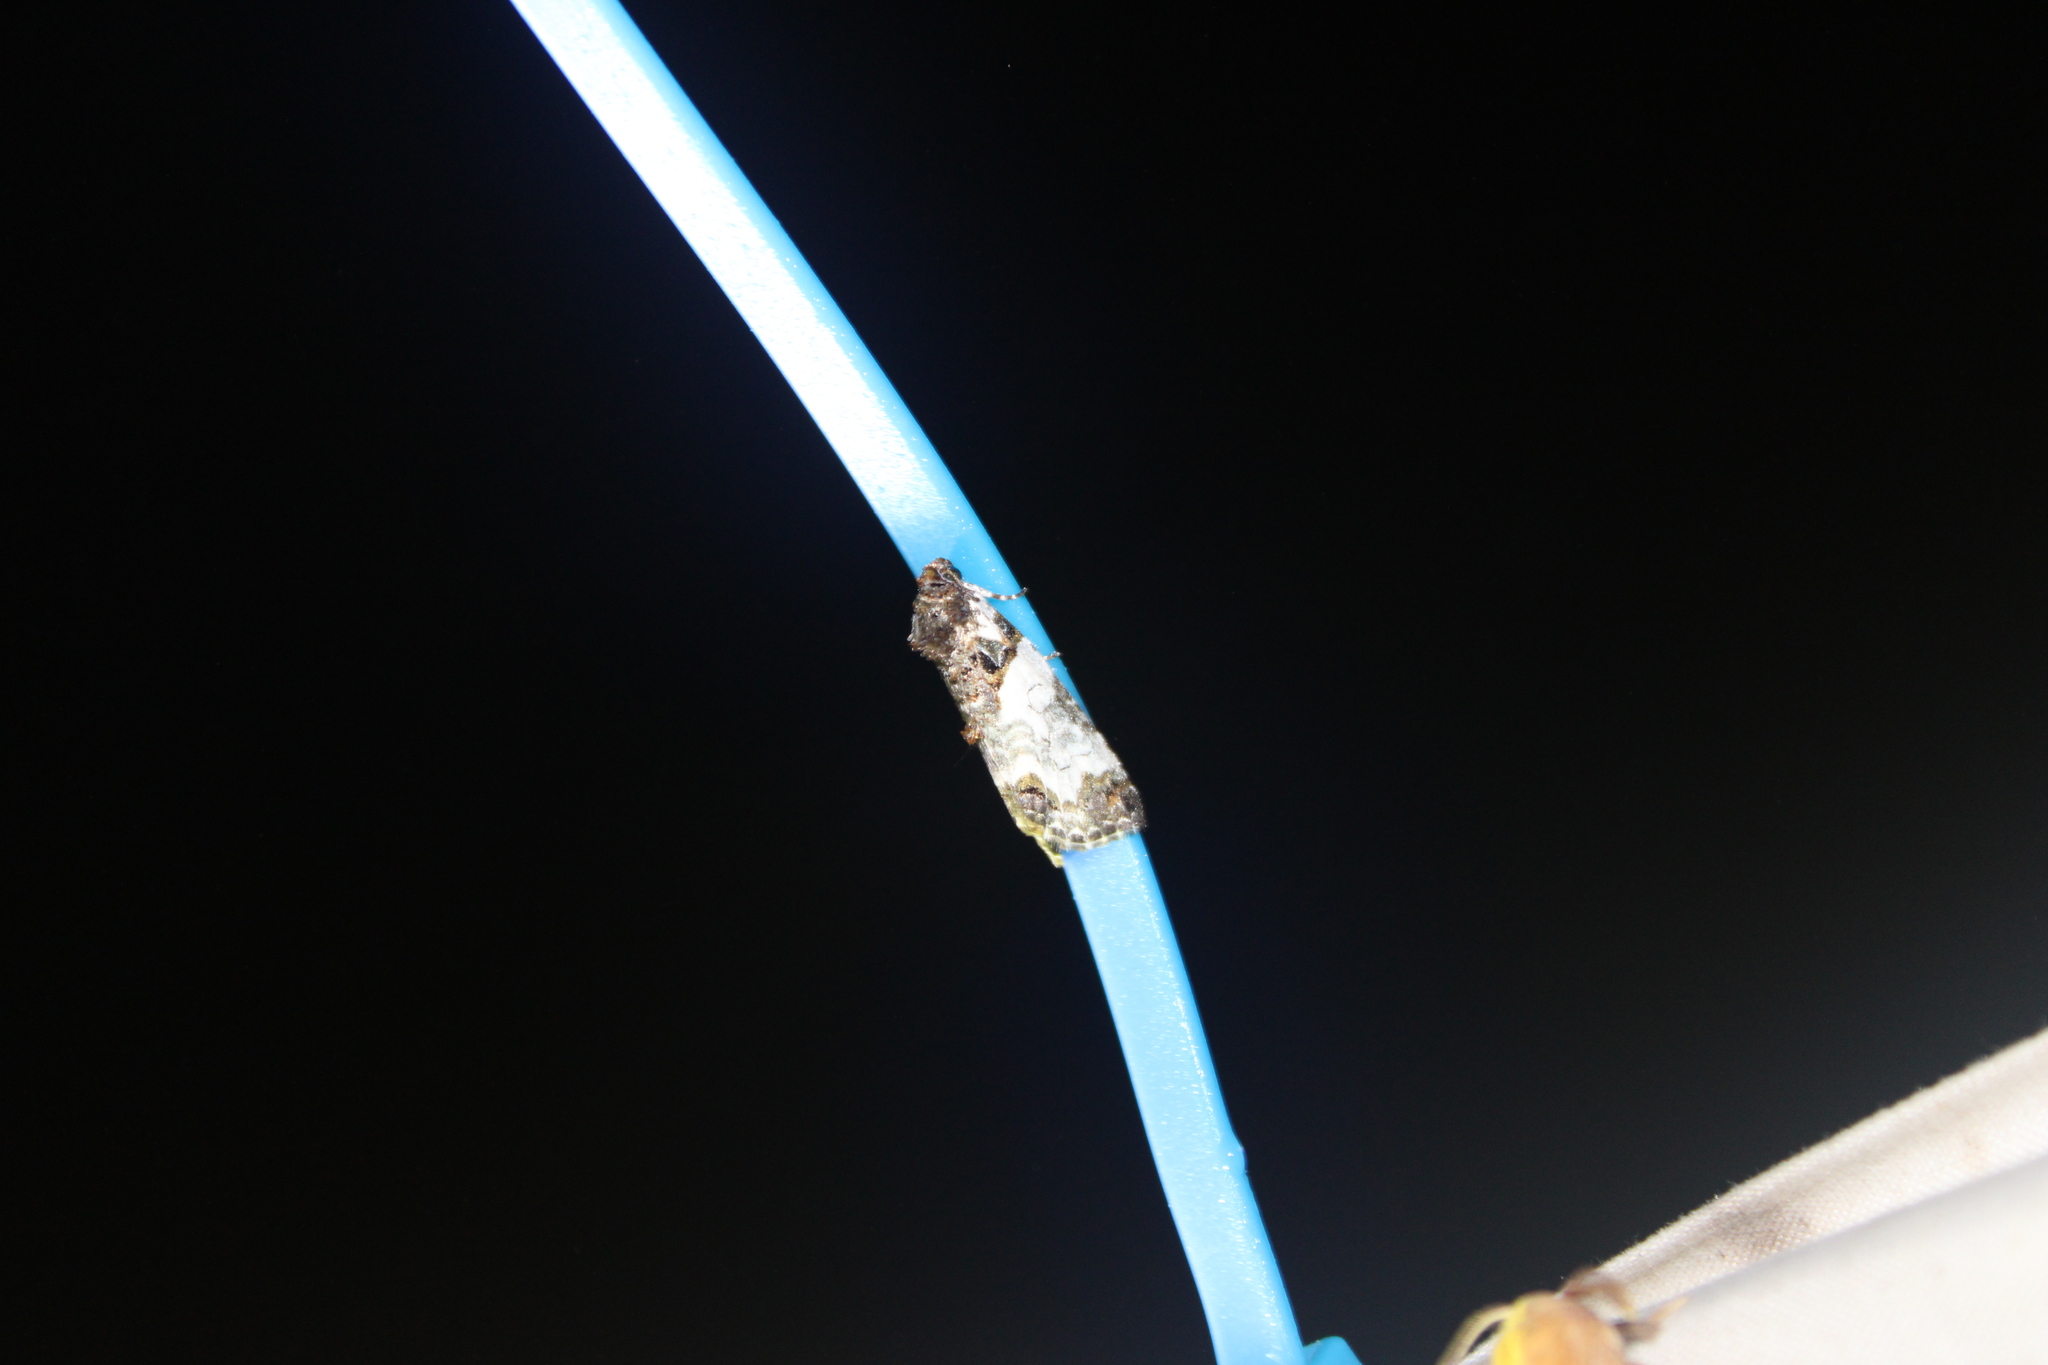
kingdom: Animalia
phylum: Arthropoda
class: Insecta
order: Lepidoptera
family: Noctuidae
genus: Cerma
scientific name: Cerma cerintha
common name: Tufted bird-dropping moth
